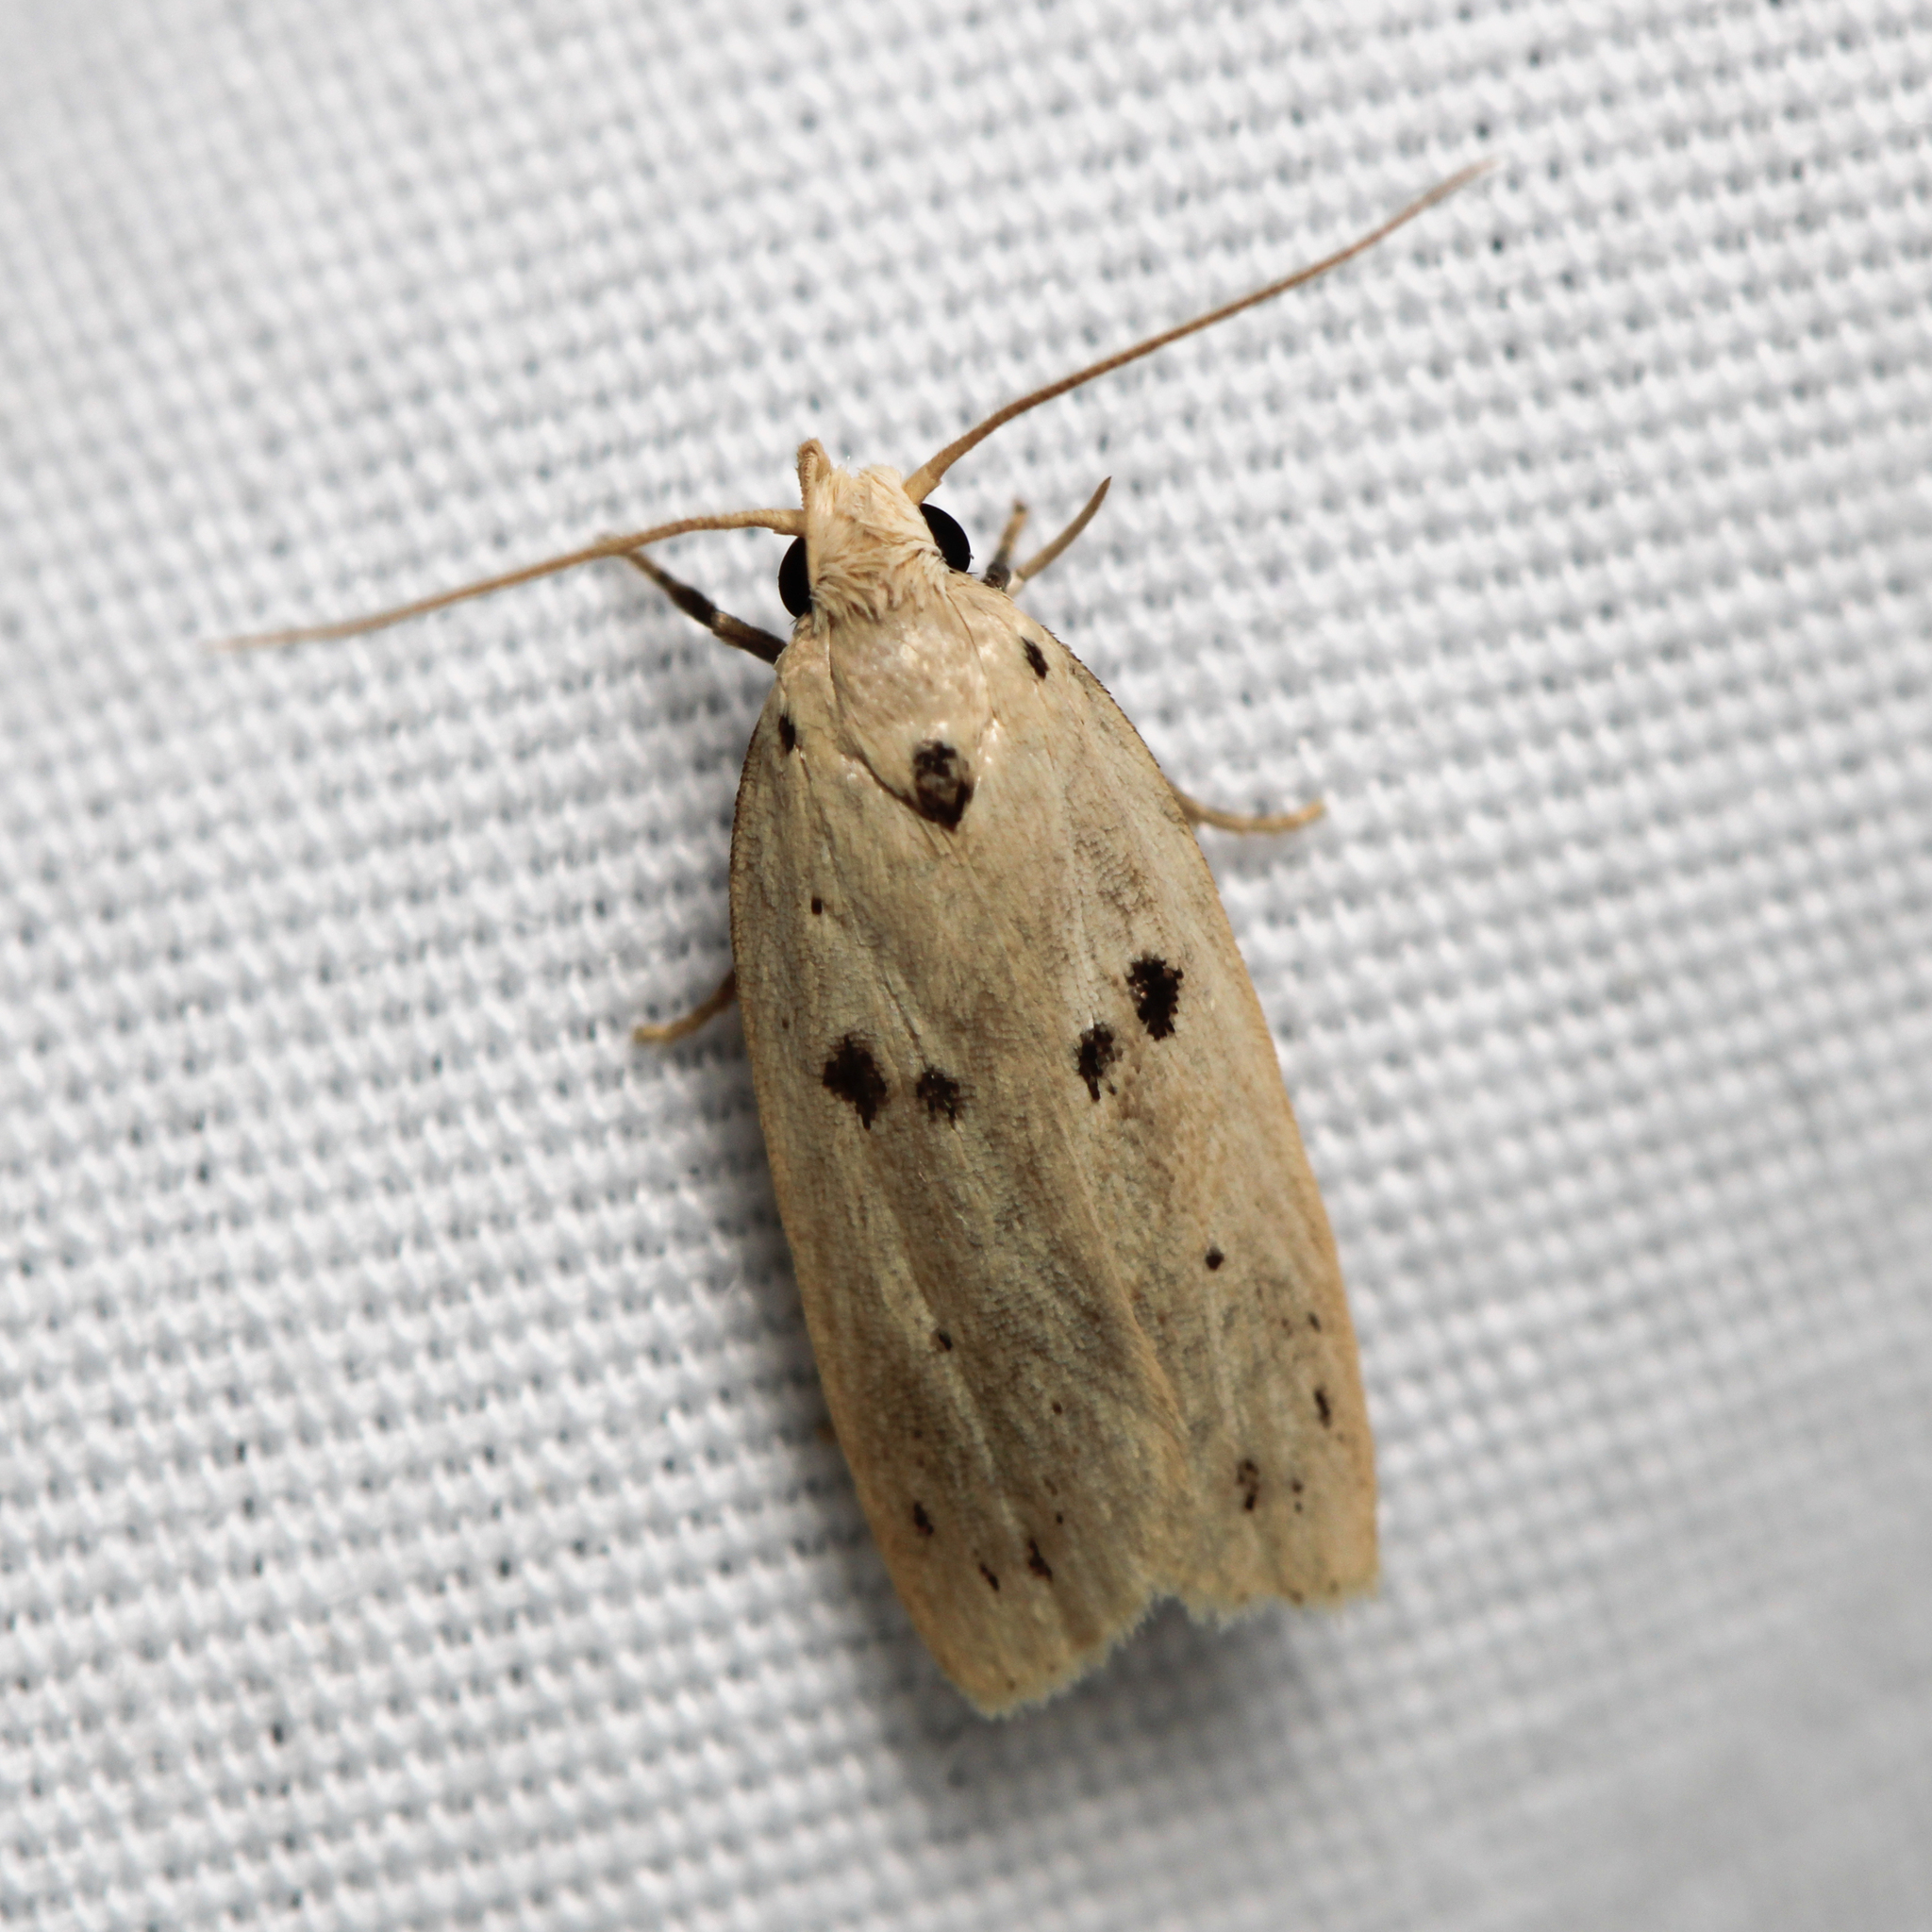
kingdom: Animalia
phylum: Arthropoda
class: Insecta
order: Lepidoptera
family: Peleopodidae
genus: Scythropiodes
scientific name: Scythropiodes issikii
